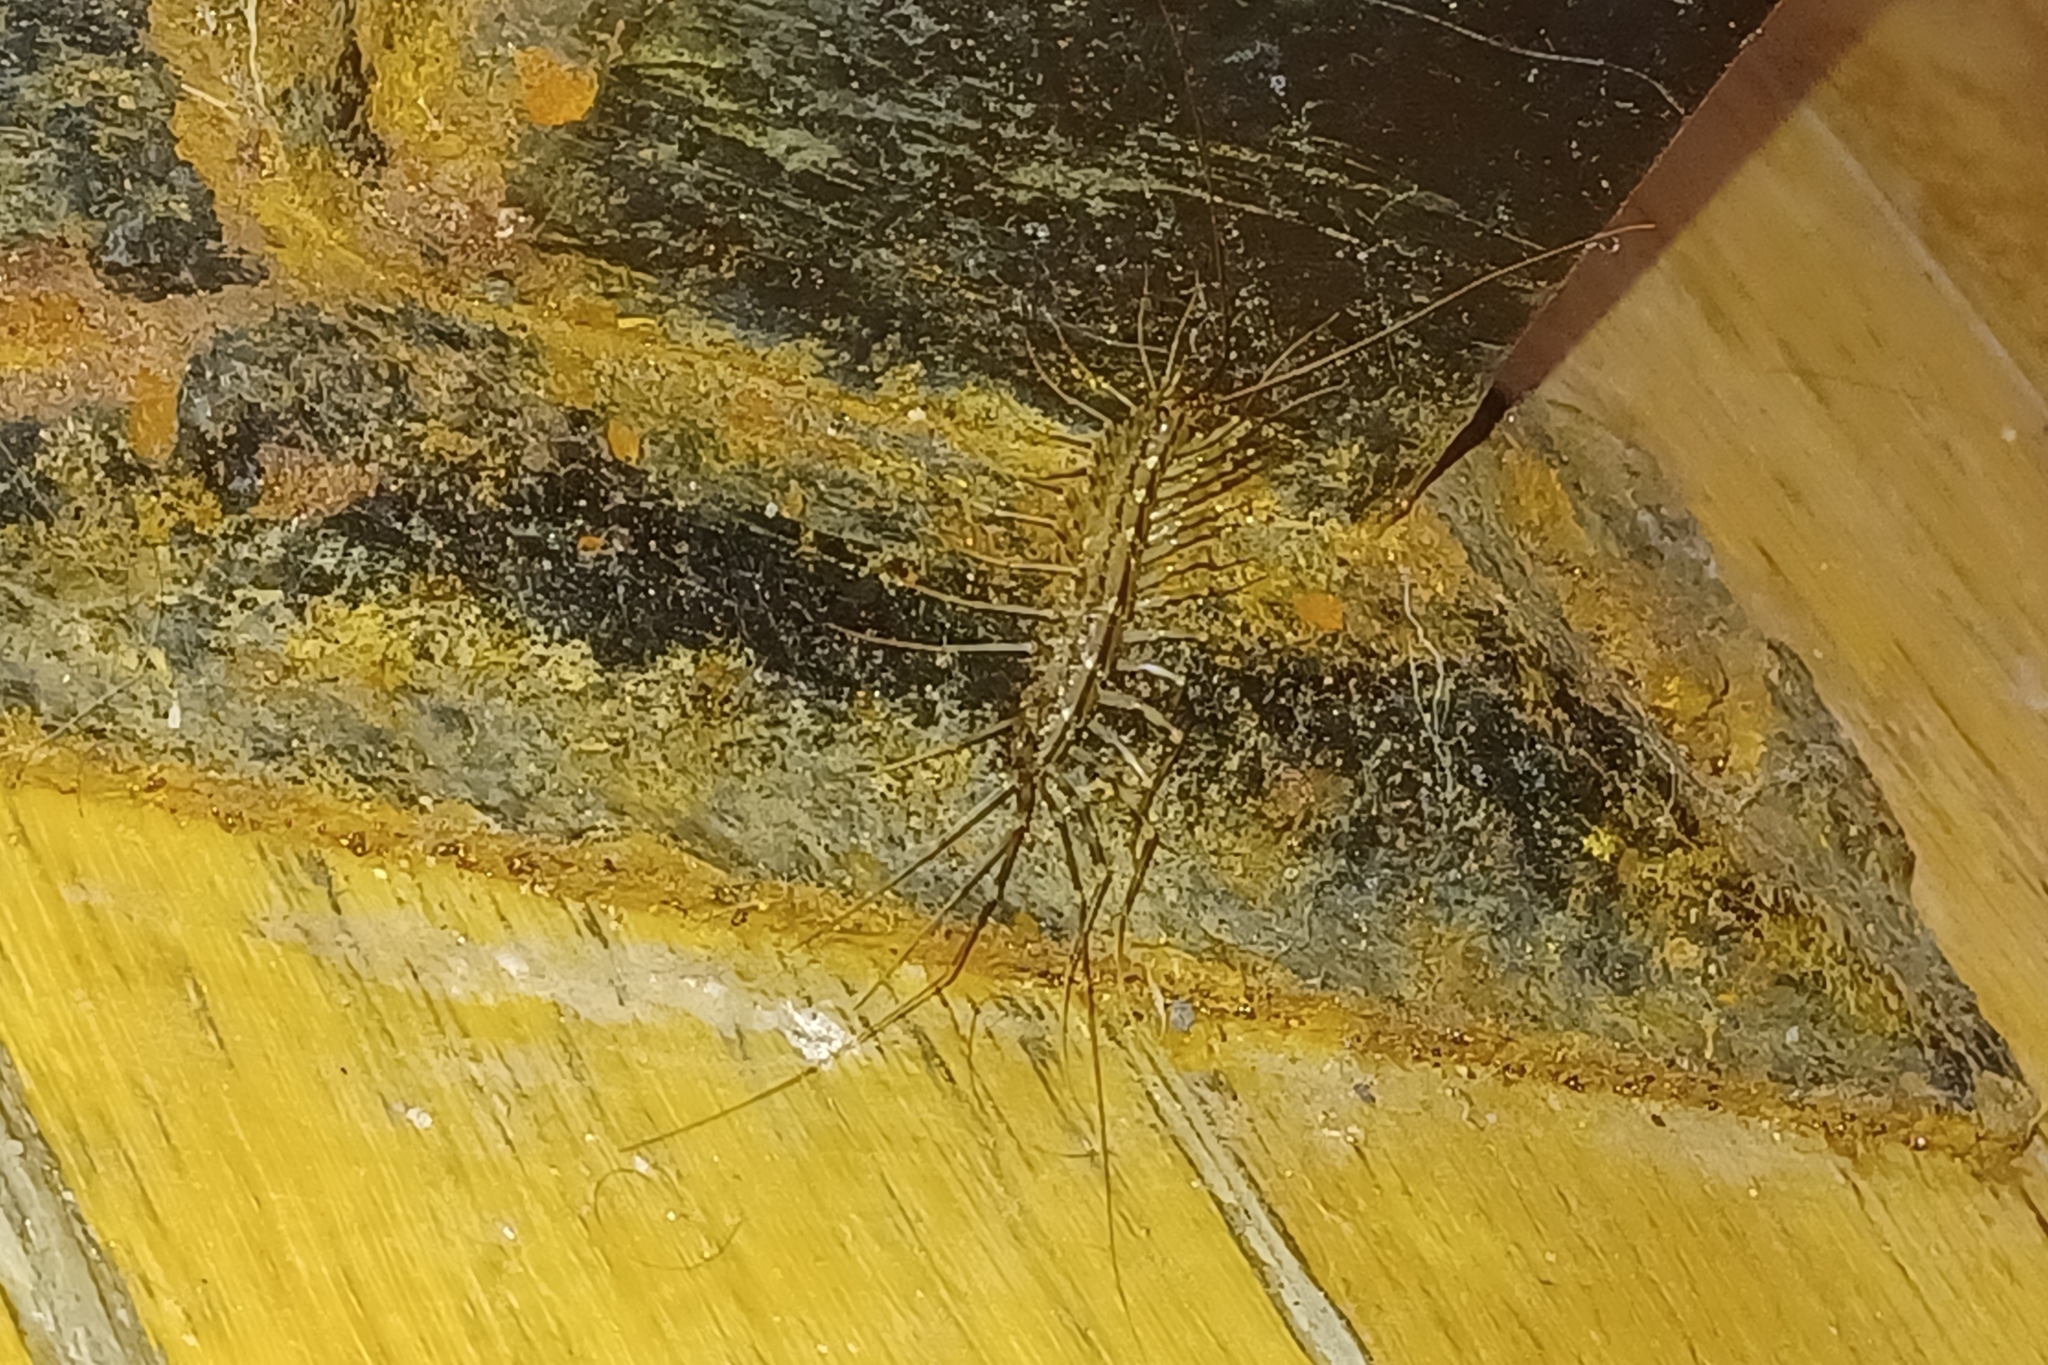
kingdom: Animalia
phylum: Arthropoda
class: Chilopoda
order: Scutigeromorpha
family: Scutigeridae
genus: Scutigera
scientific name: Scutigera coleoptrata
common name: House centipede
